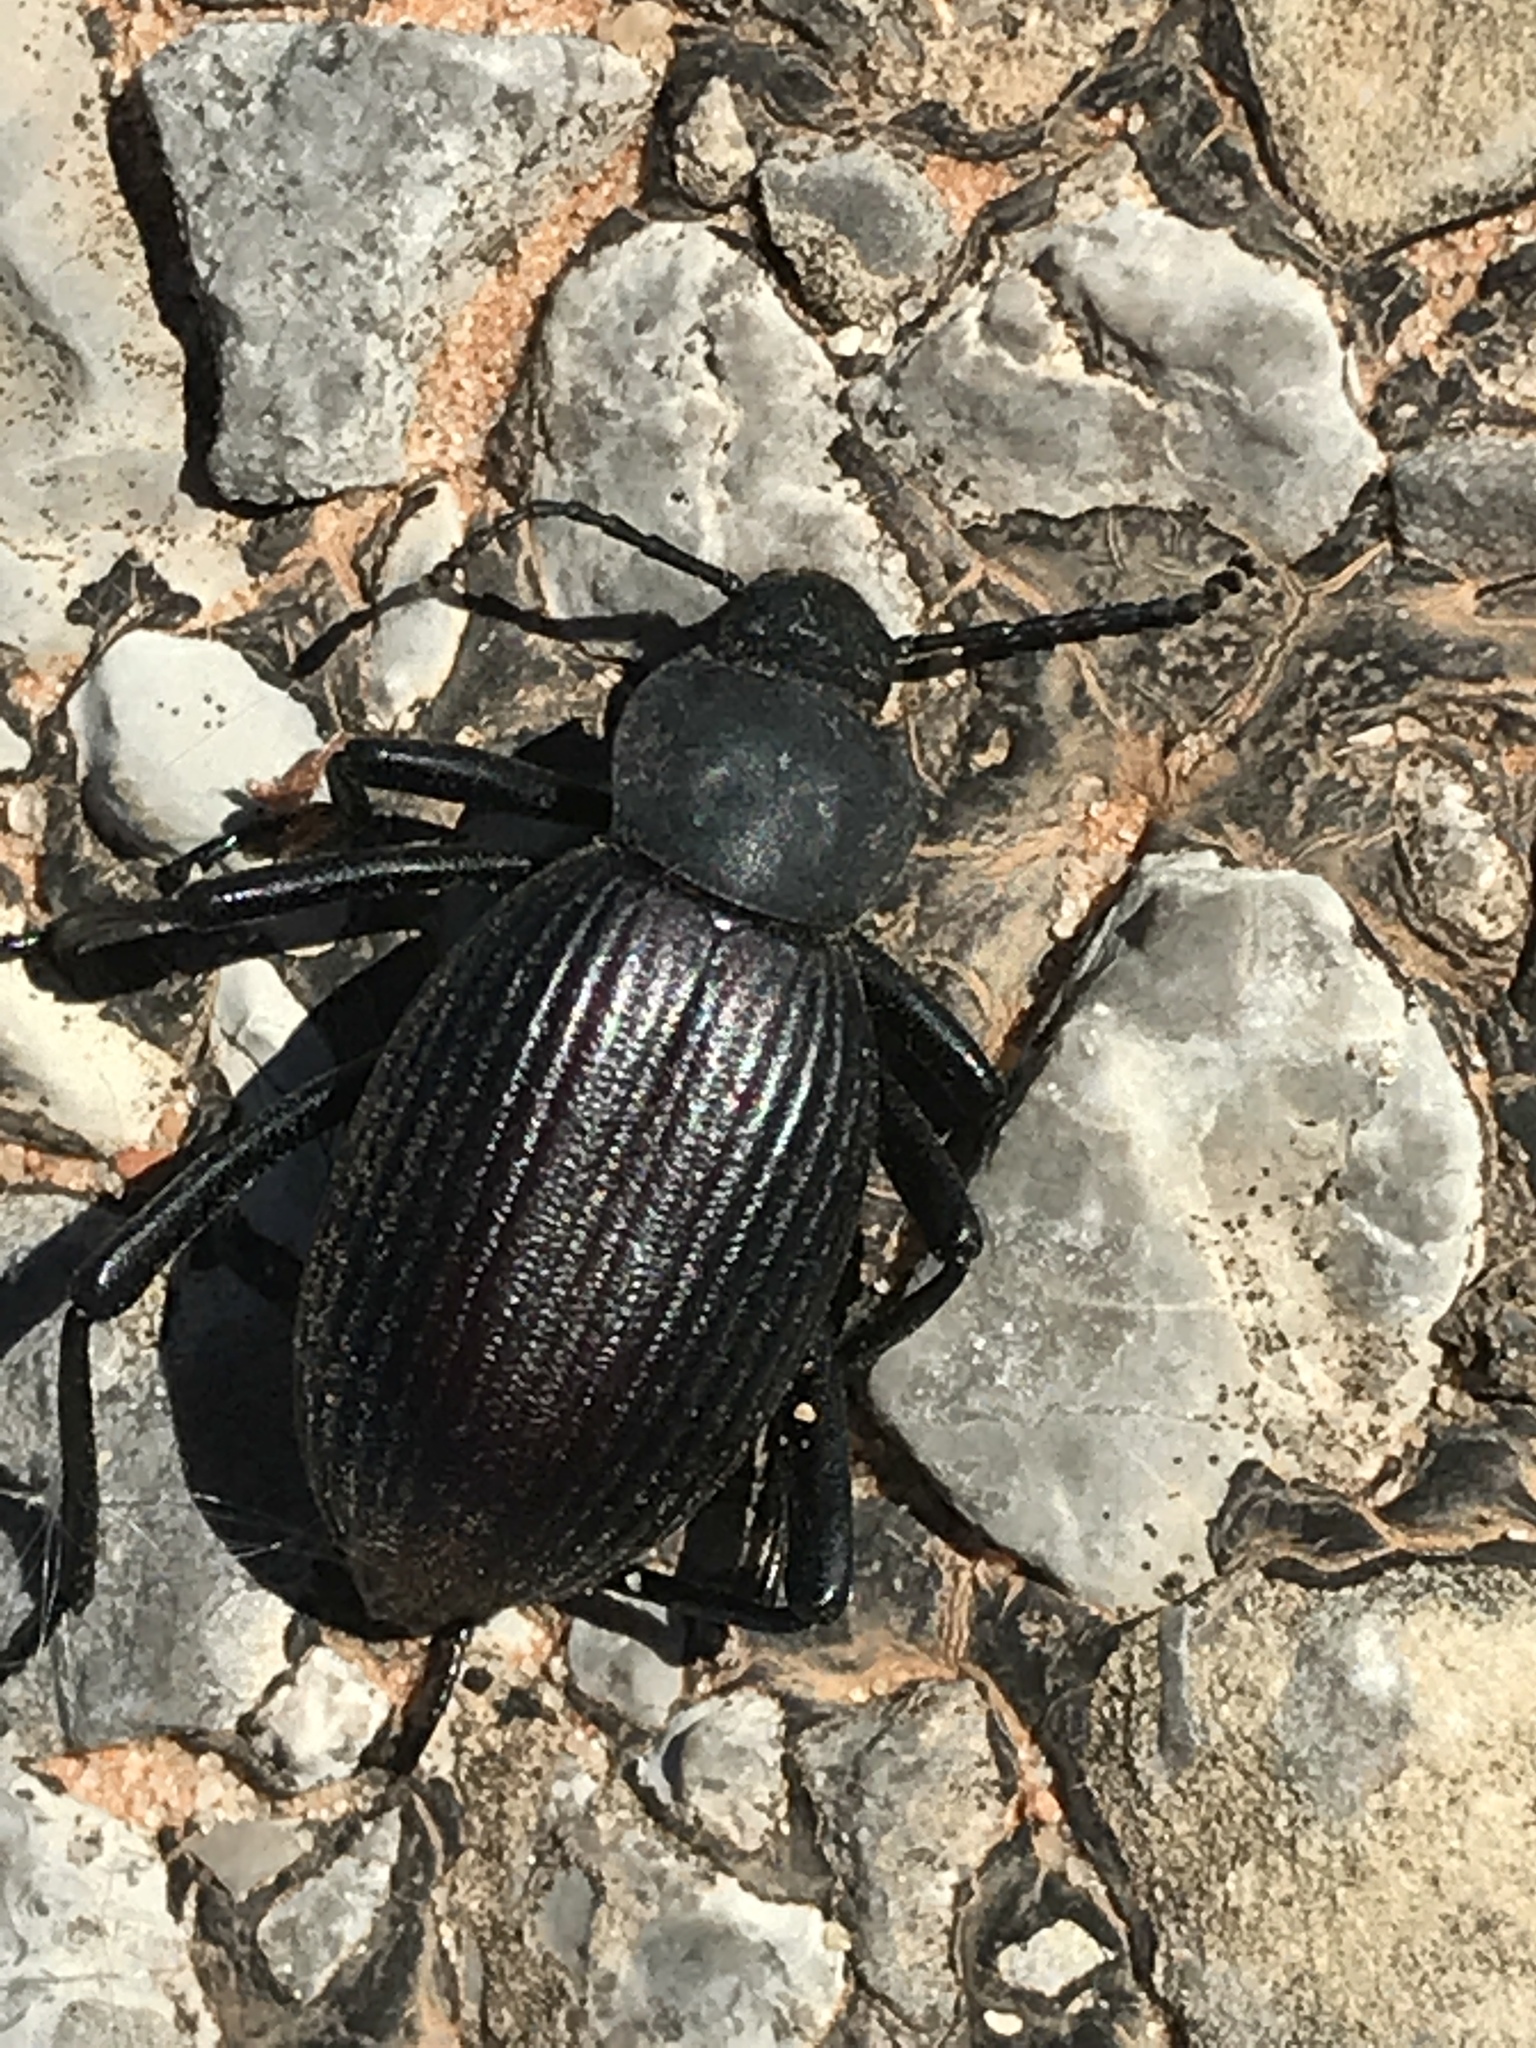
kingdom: Animalia
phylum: Arthropoda
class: Insecta
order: Coleoptera
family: Tenebrionidae
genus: Eleodes
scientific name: Eleodes hispilabris
